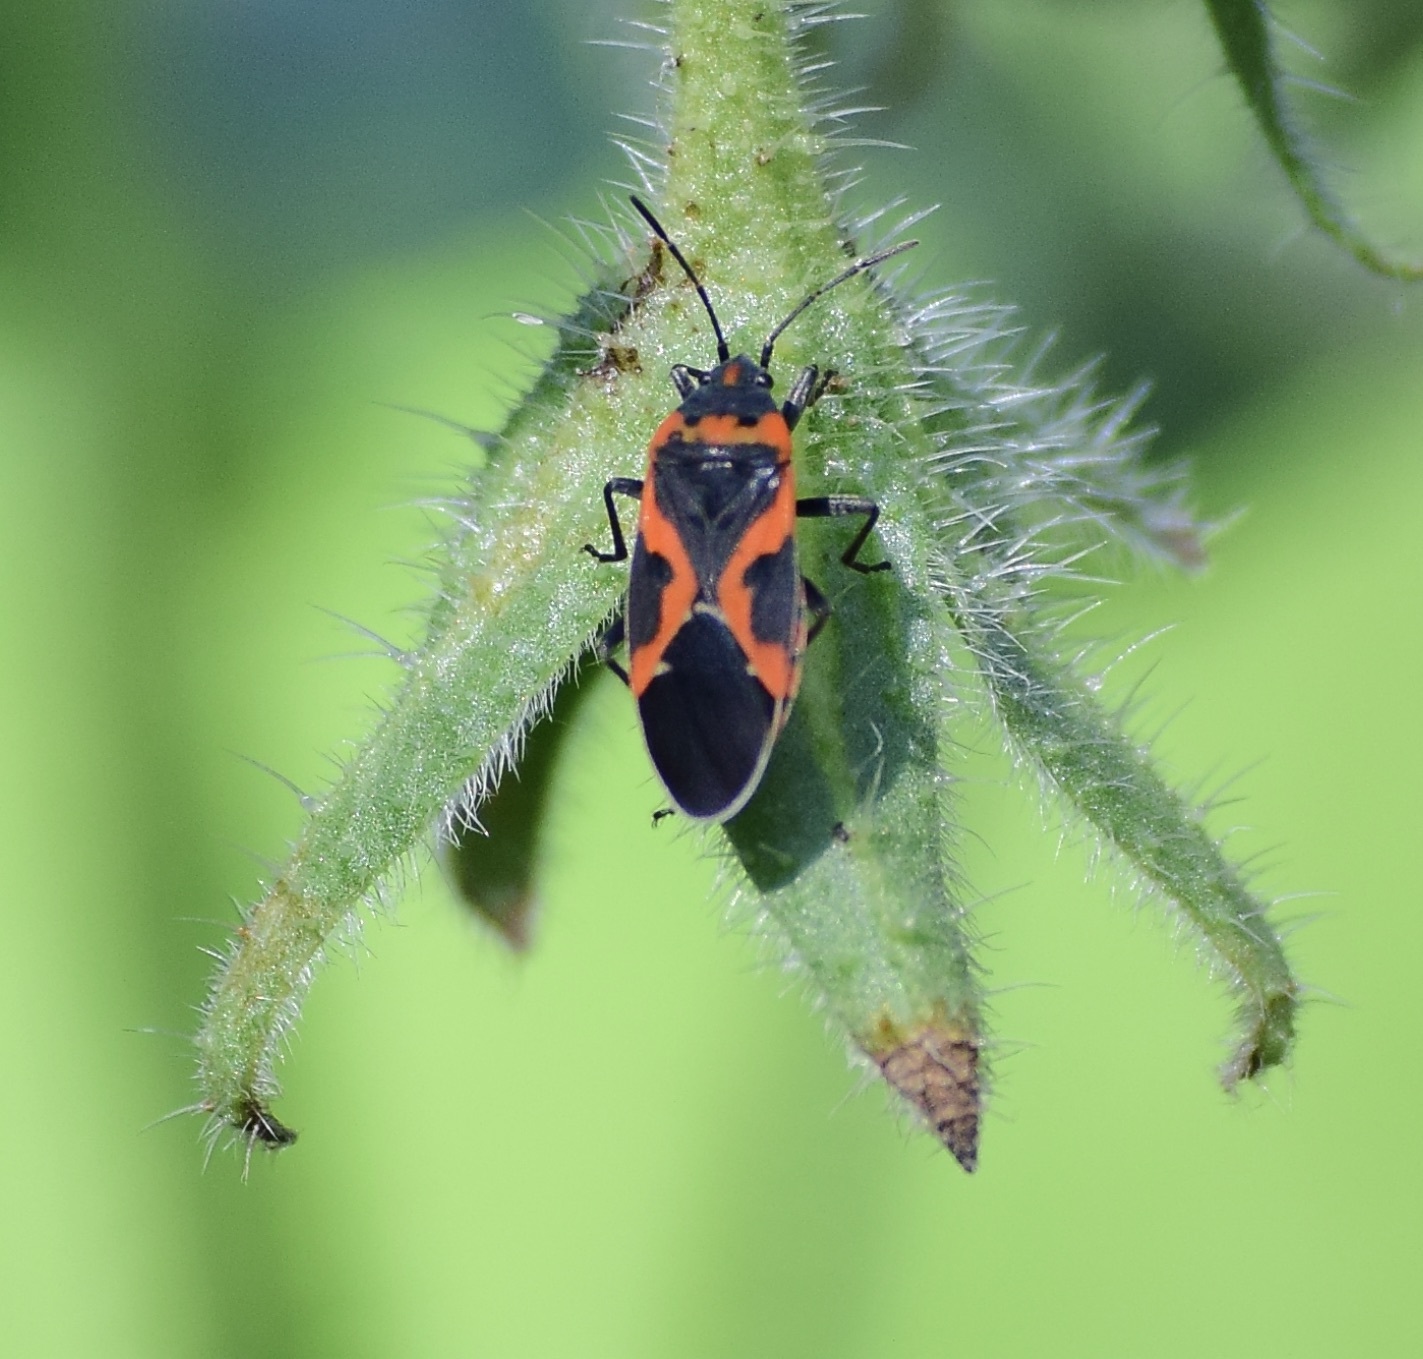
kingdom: Animalia
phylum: Arthropoda
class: Insecta
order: Hemiptera
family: Lygaeidae
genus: Lygaeus
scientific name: Lygaeus kalmii
